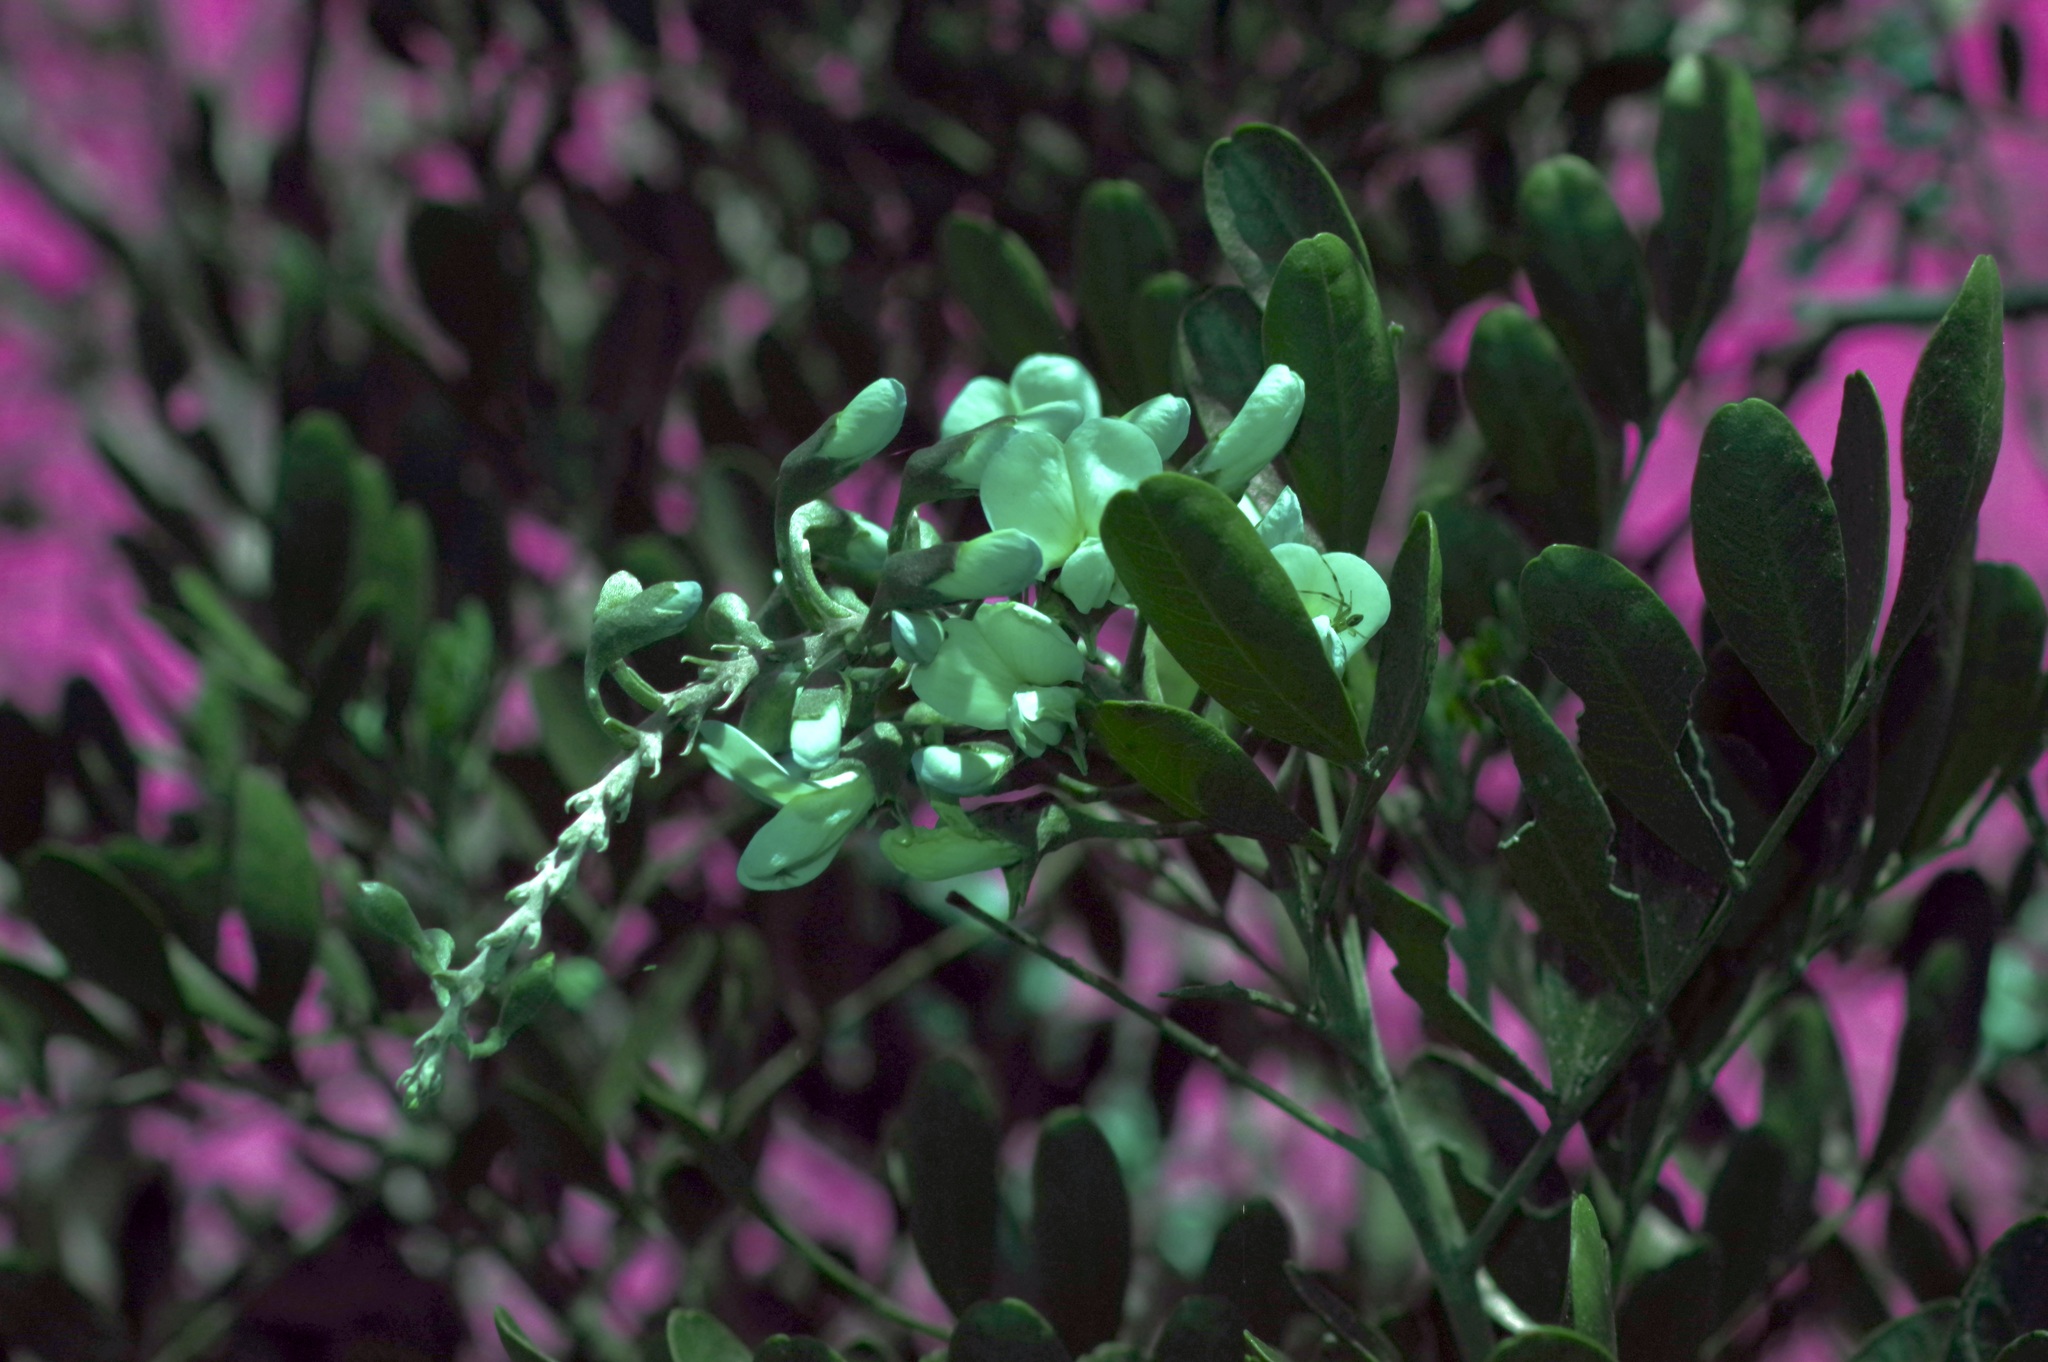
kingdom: Plantae
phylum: Tracheophyta
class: Magnoliopsida
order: Fabales
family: Fabaceae
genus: Dermatophyllum
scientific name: Dermatophyllum secundiflorum
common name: Texas-mountain-laurel
